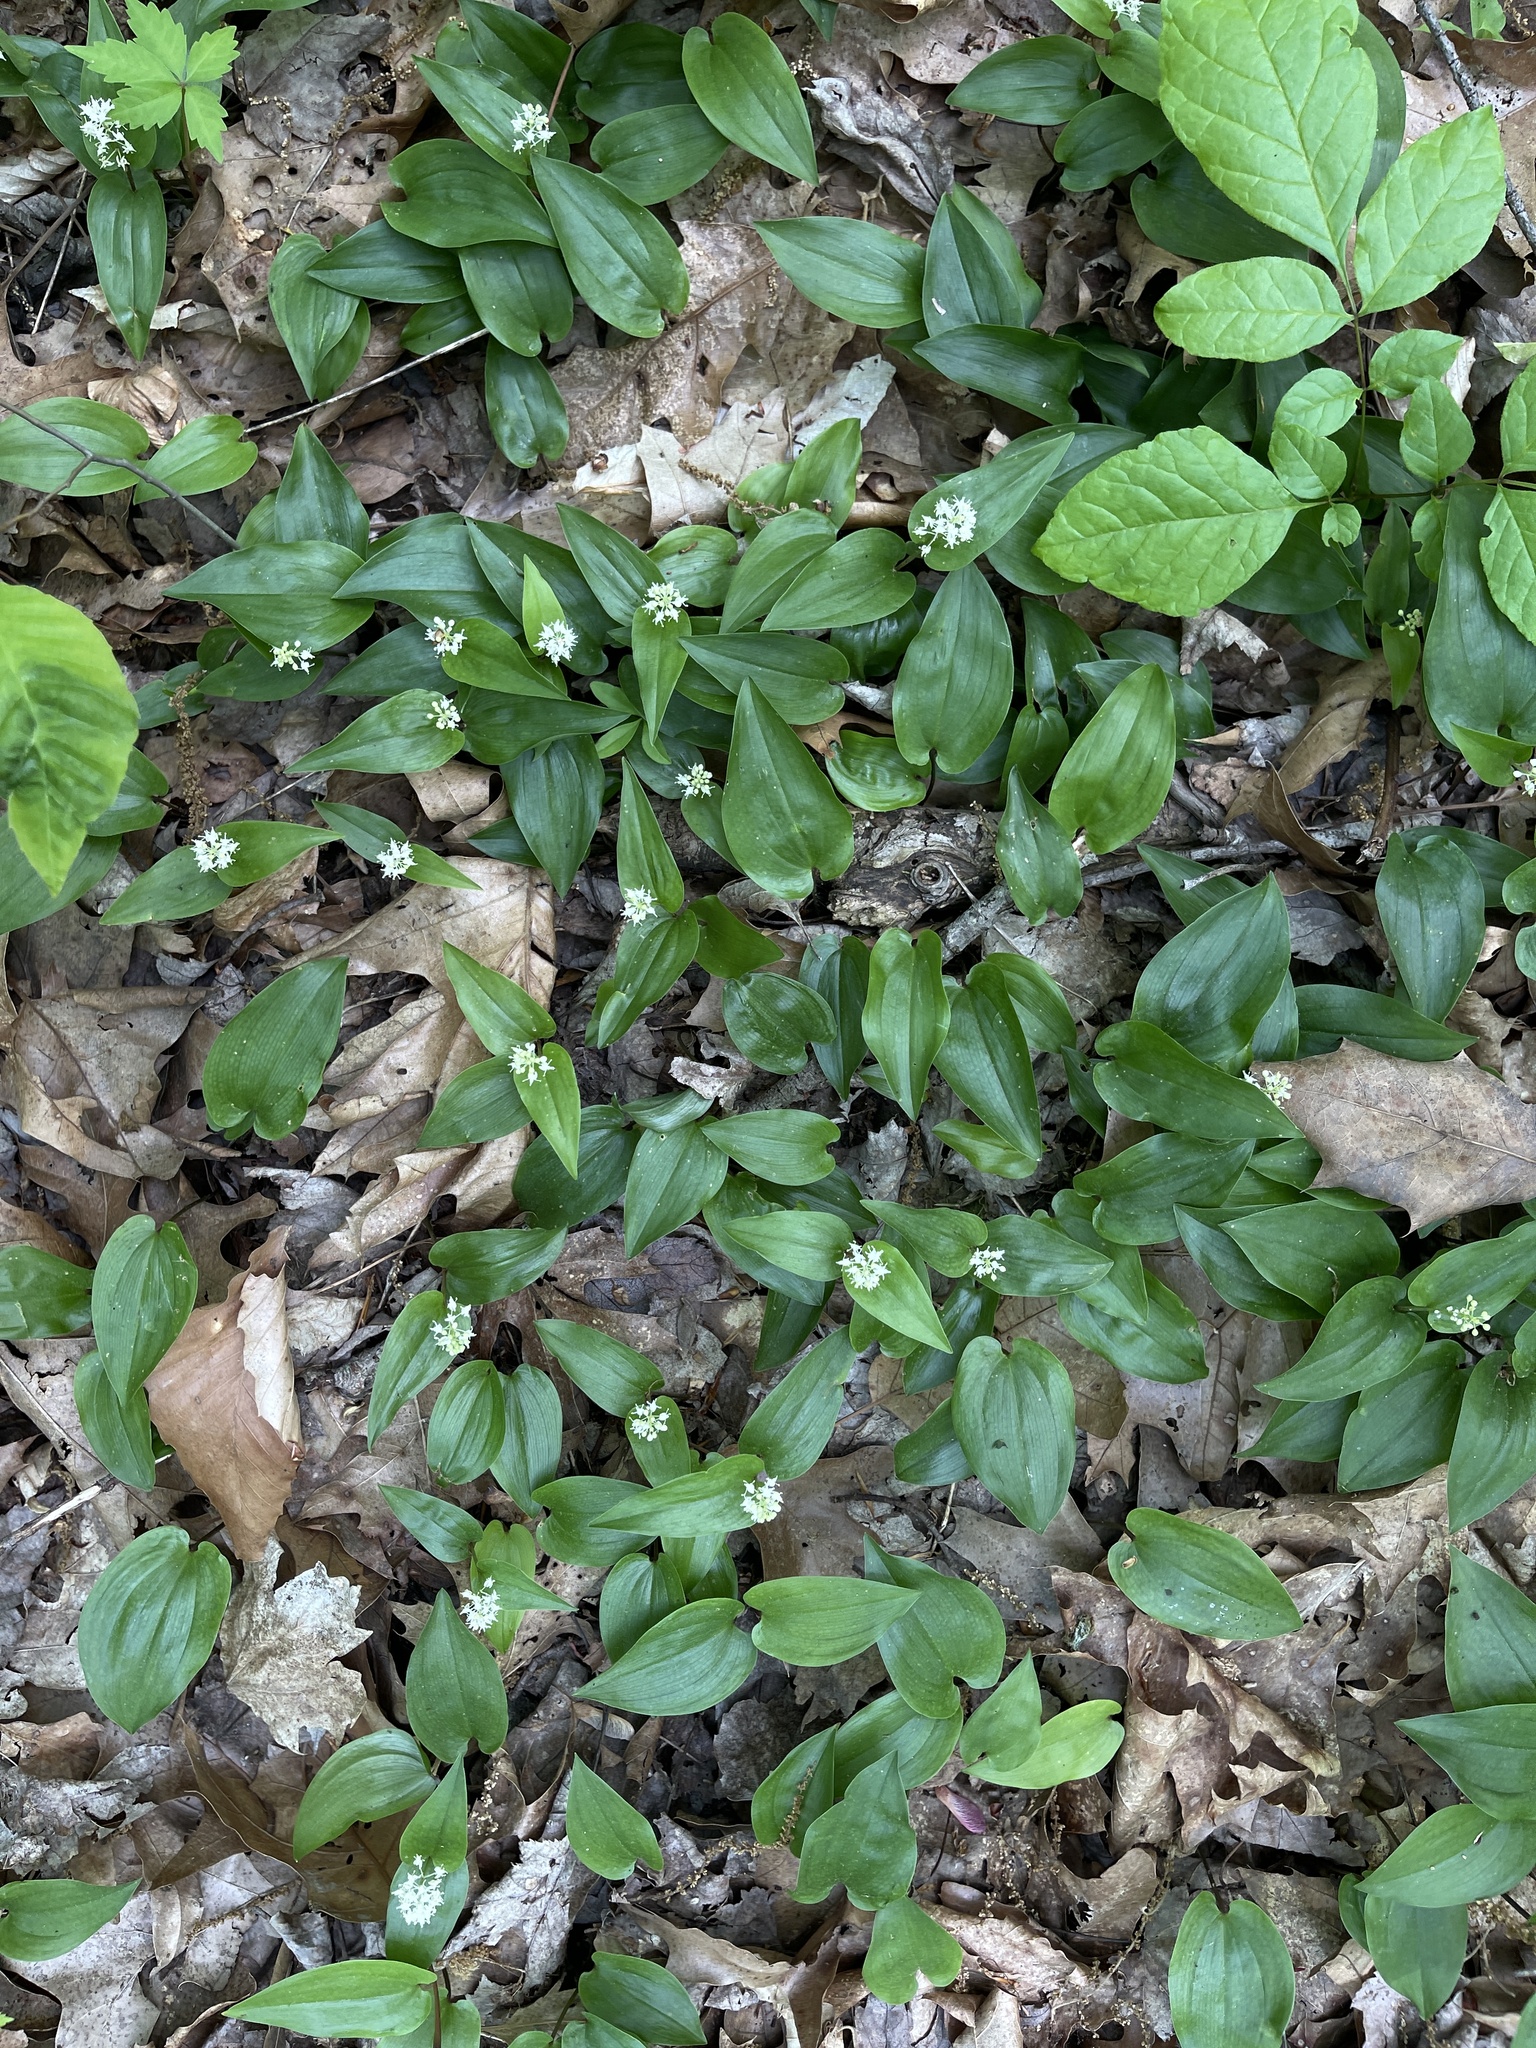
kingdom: Plantae
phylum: Tracheophyta
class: Liliopsida
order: Asparagales
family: Asparagaceae
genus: Maianthemum
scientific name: Maianthemum canadense
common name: False lily-of-the-valley
